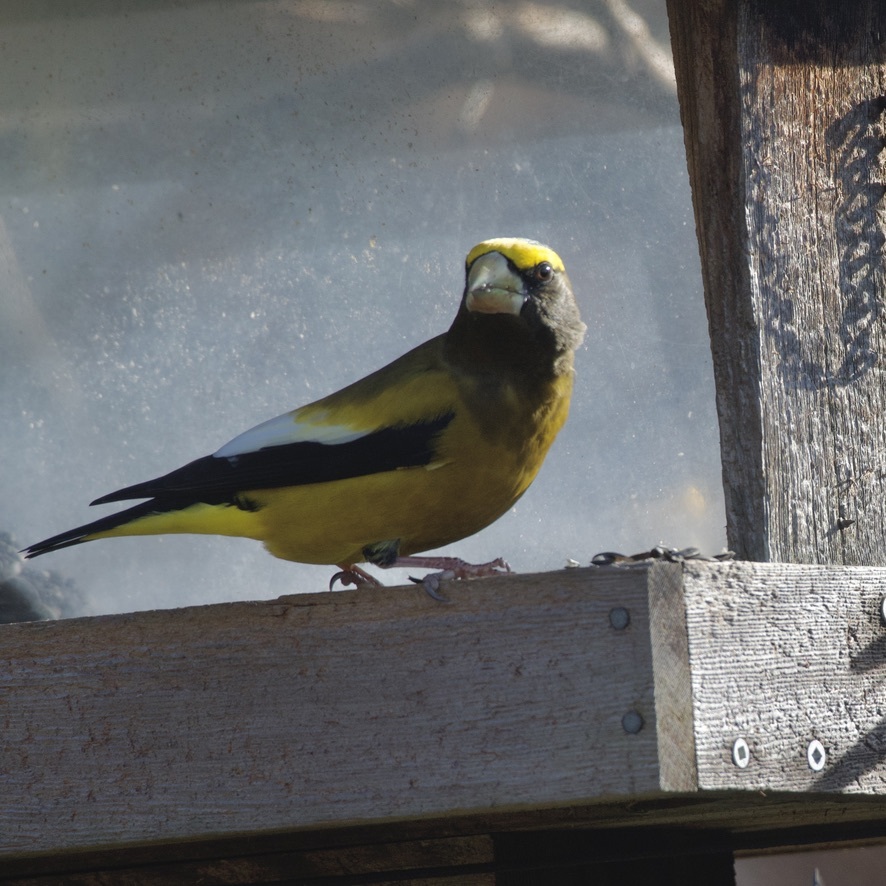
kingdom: Animalia
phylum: Chordata
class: Aves
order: Passeriformes
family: Fringillidae
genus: Hesperiphona
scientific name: Hesperiphona vespertina
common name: Evening grosbeak
